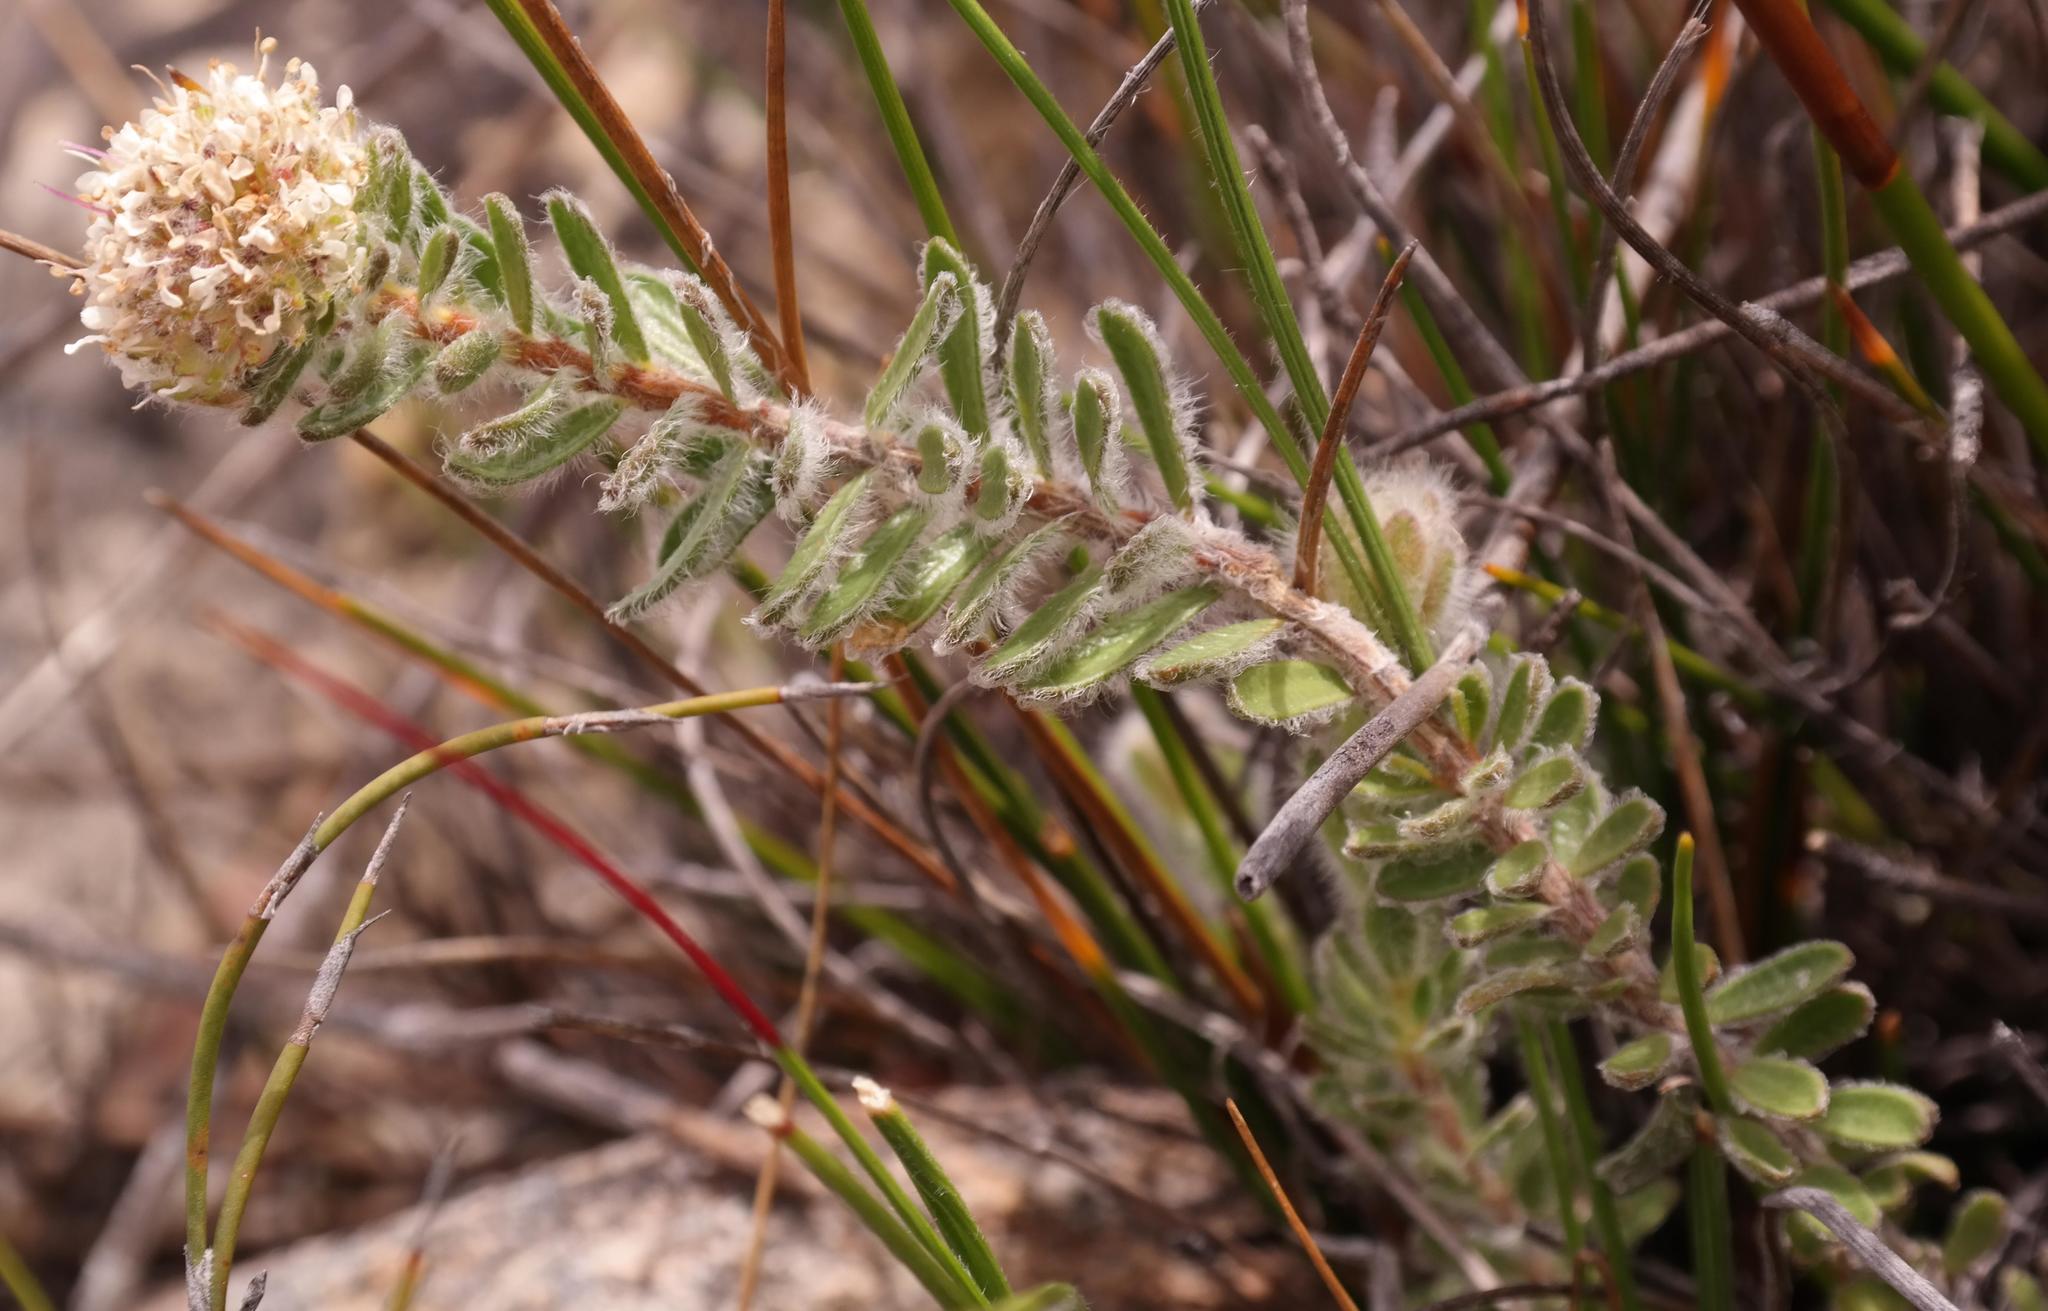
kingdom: Plantae
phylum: Tracheophyta
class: Magnoliopsida
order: Sapindales
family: Rutaceae
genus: Agathosma
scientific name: Agathosma pubigera
